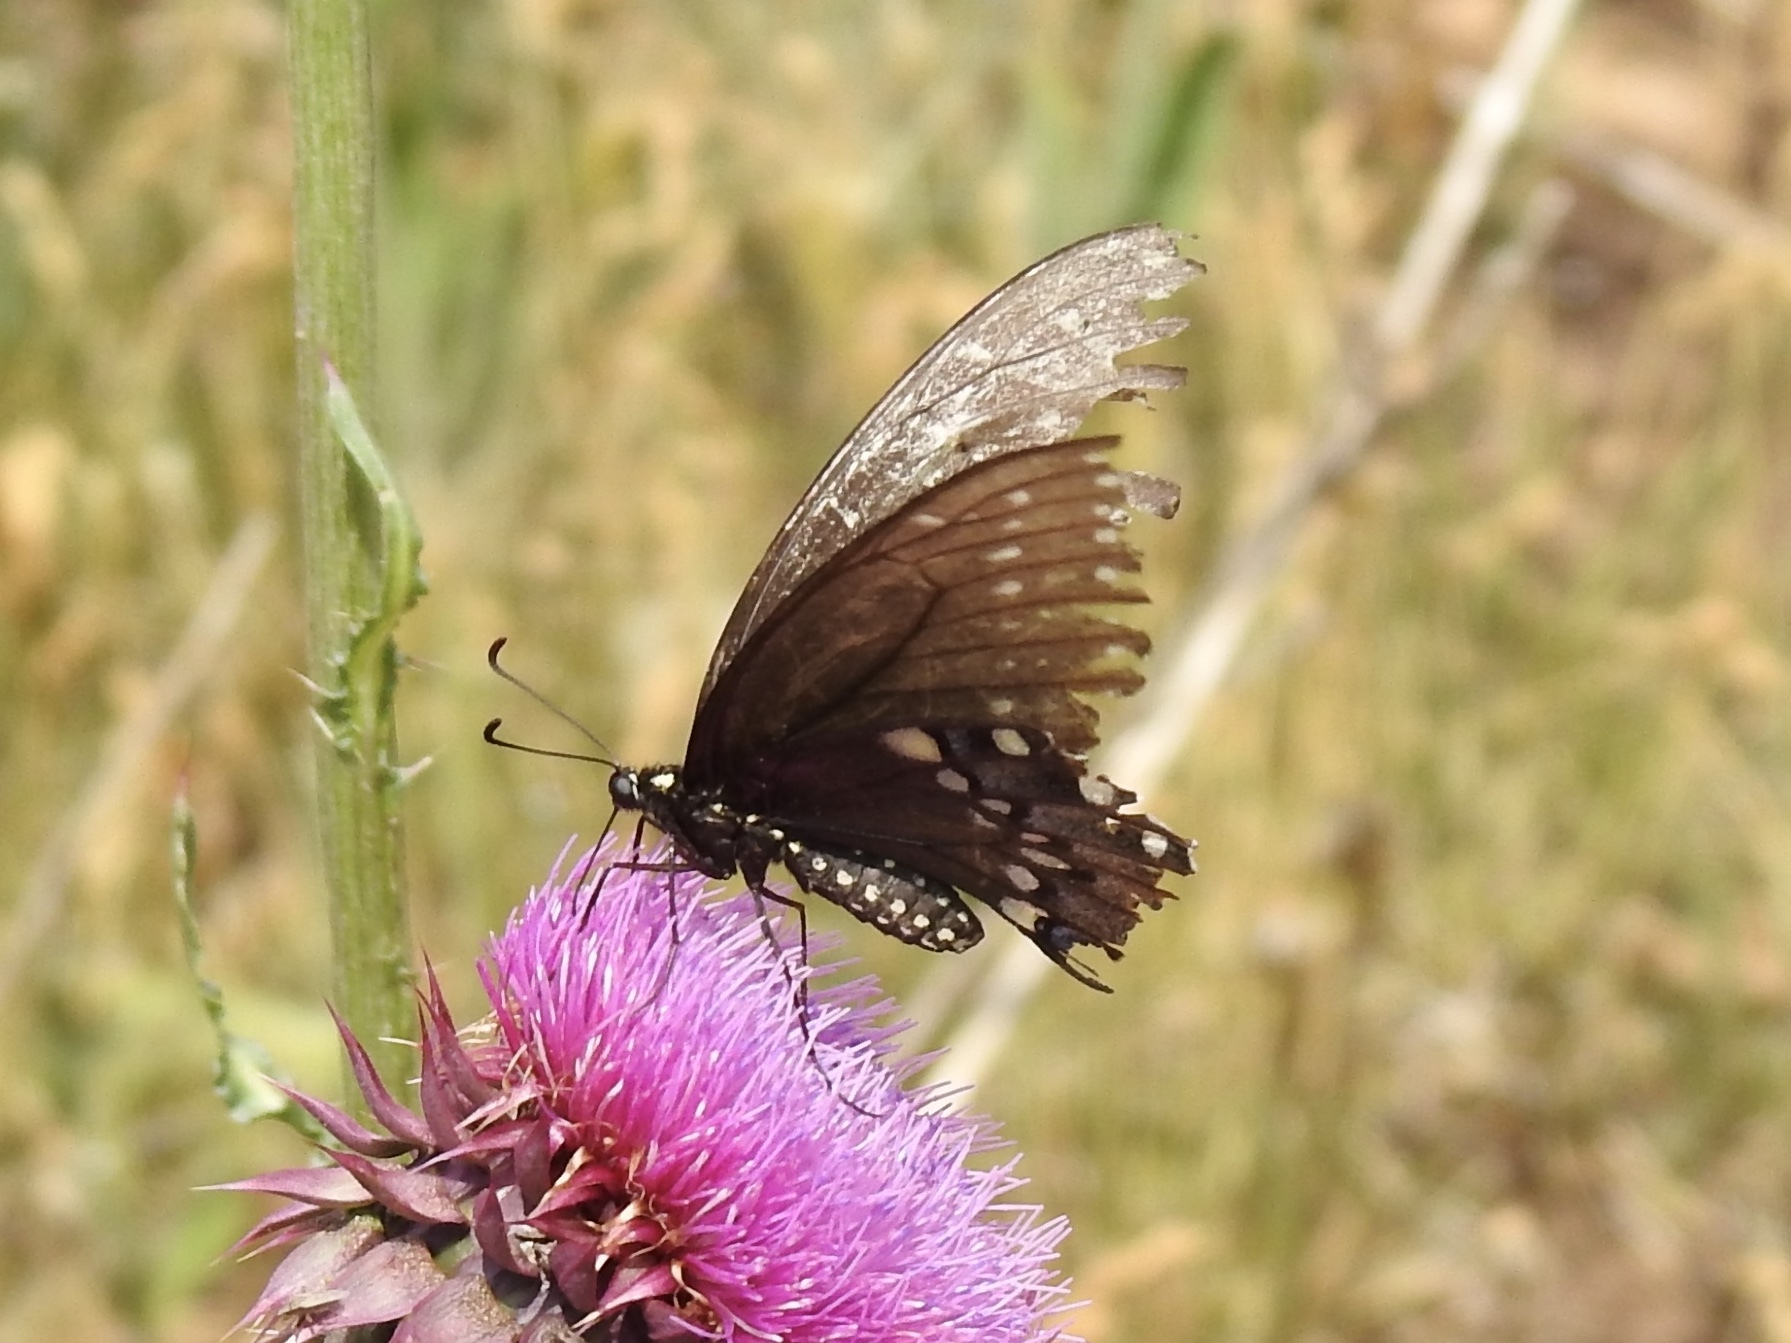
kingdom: Animalia
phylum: Arthropoda
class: Insecta
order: Lepidoptera
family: Papilionidae
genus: Papilio
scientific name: Papilio polyxenes
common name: Black swallowtail
